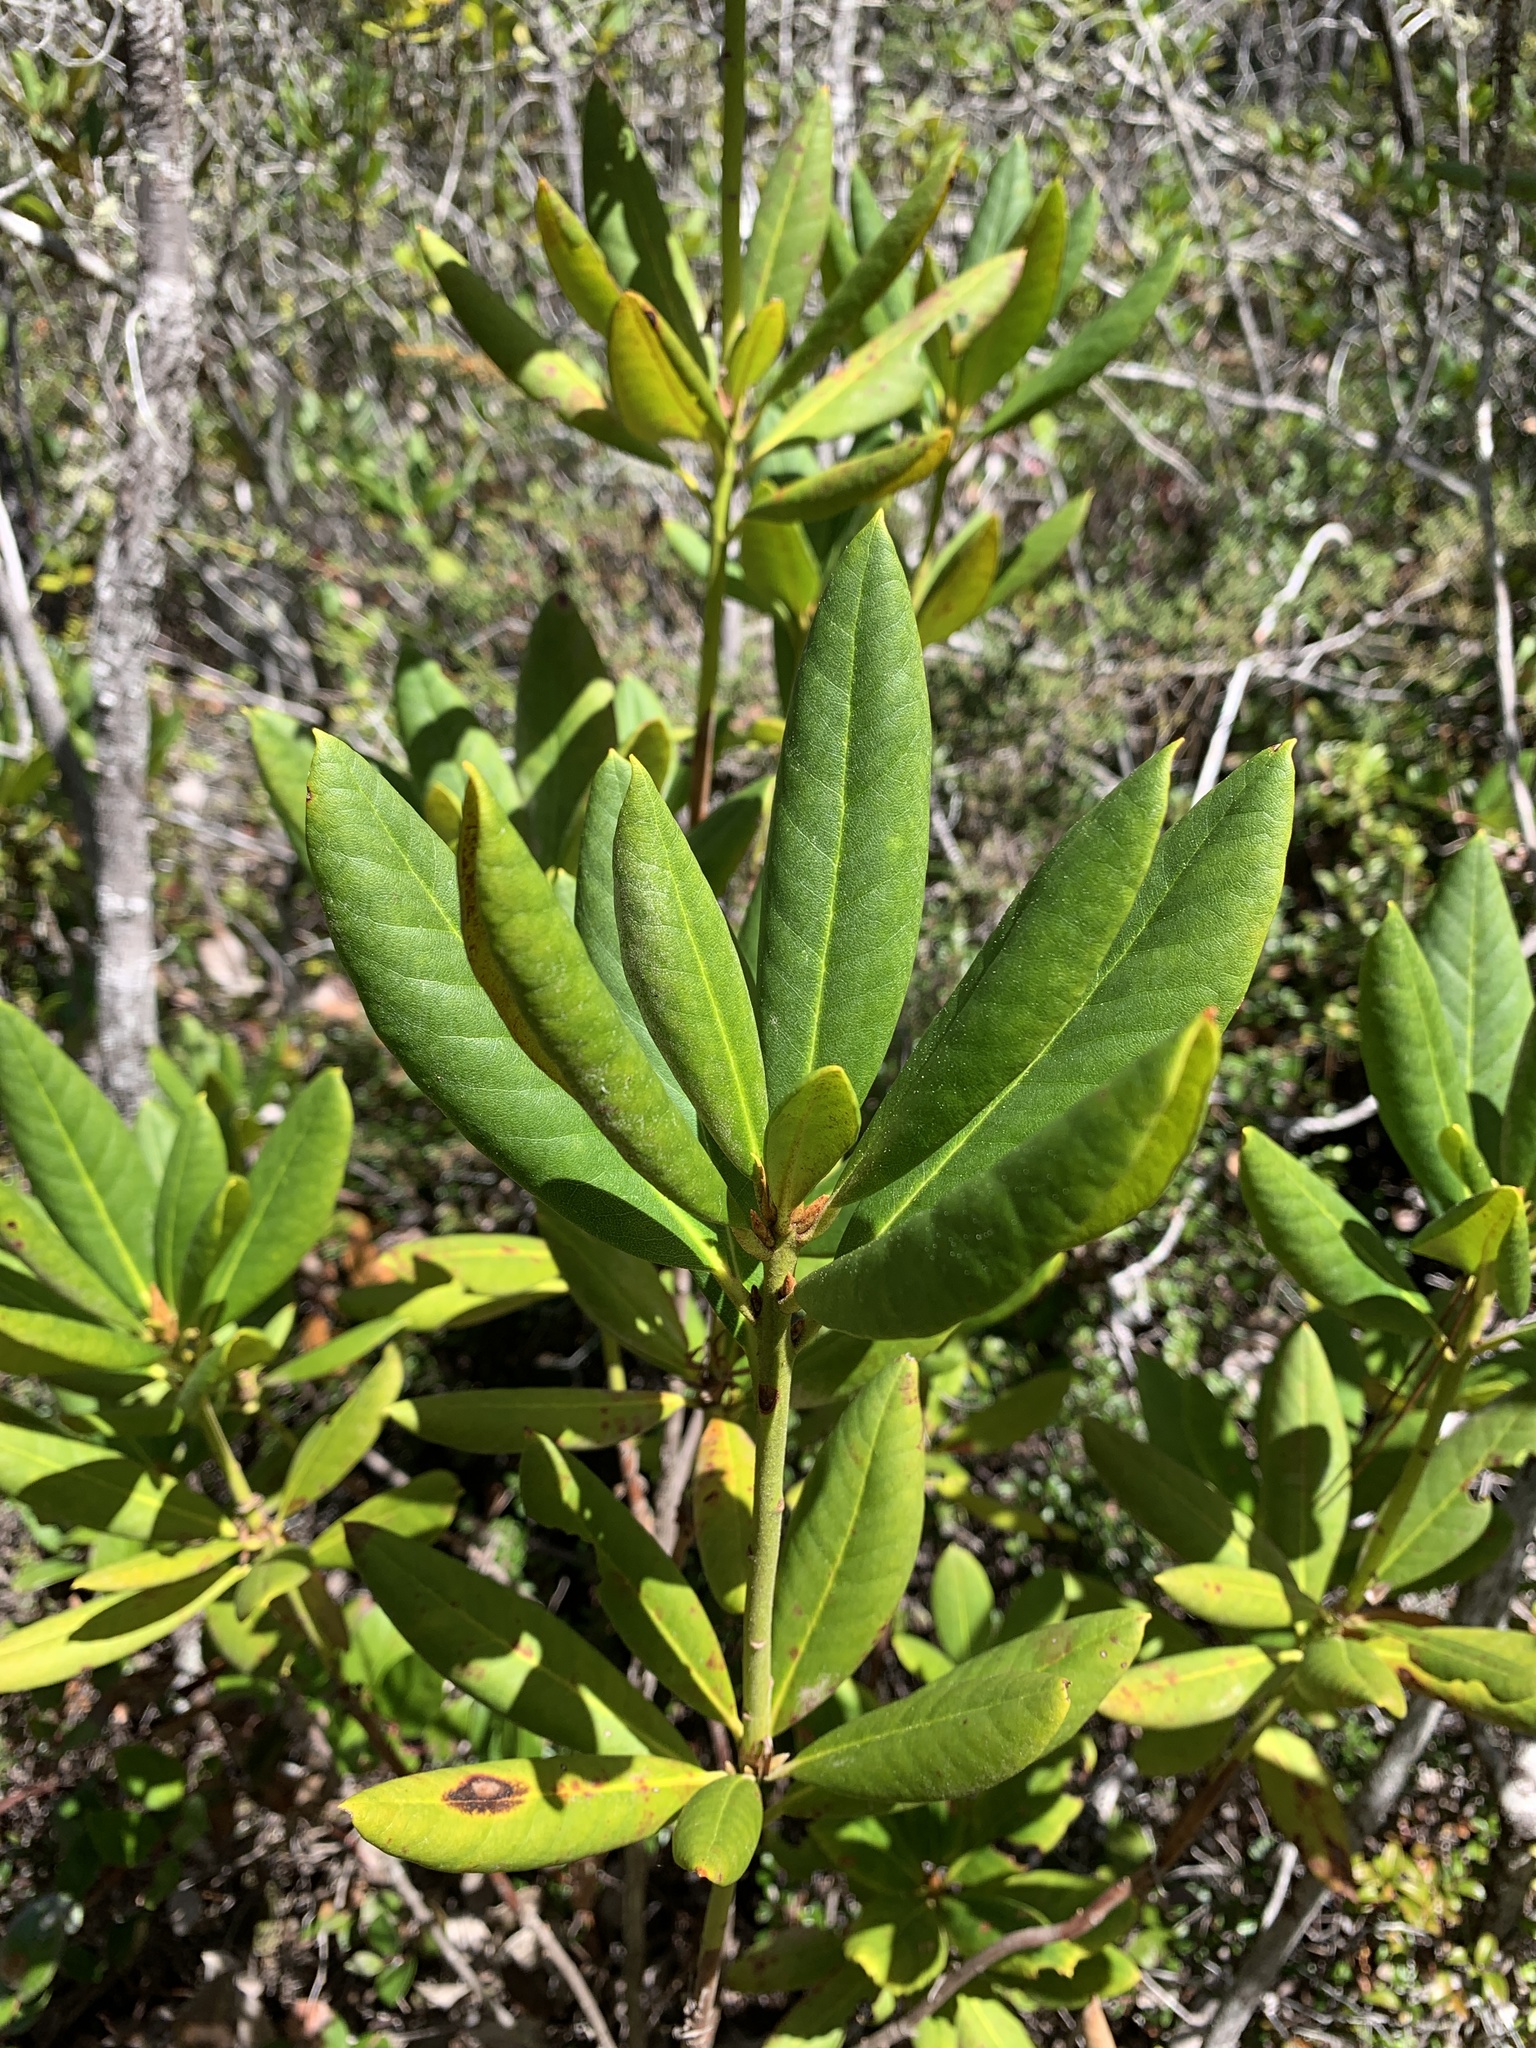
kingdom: Plantae
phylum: Tracheophyta
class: Magnoliopsida
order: Ericales
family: Ericaceae
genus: Rhododendron
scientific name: Rhododendron macrophyllum
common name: California rose bay
